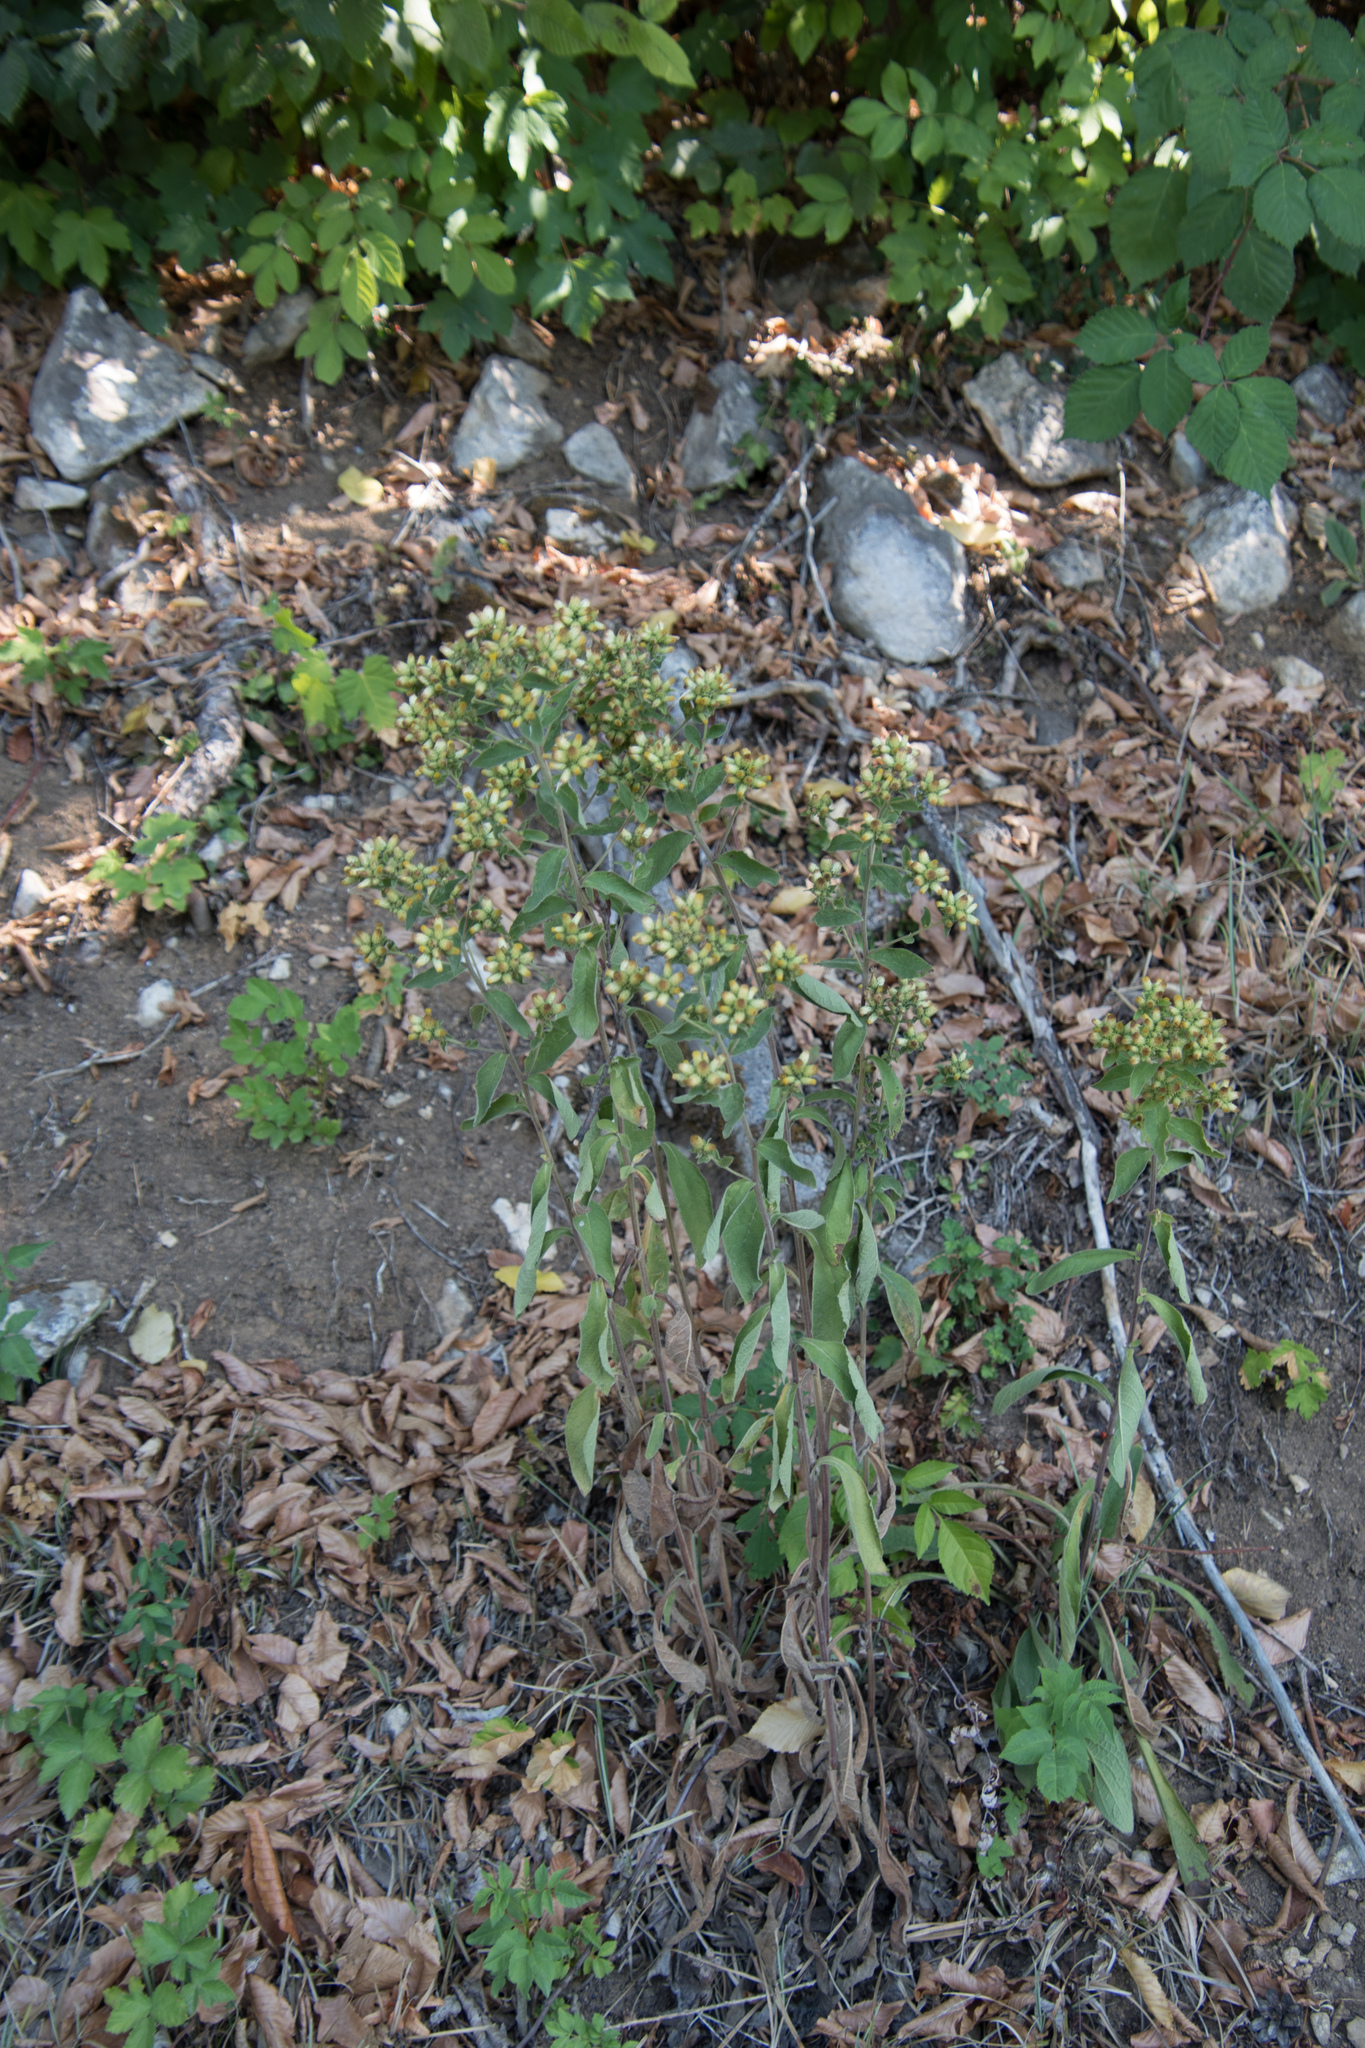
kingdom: Plantae
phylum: Tracheophyta
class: Magnoliopsida
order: Asterales
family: Asteraceae
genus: Pentanema
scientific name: Pentanema squarrosum
